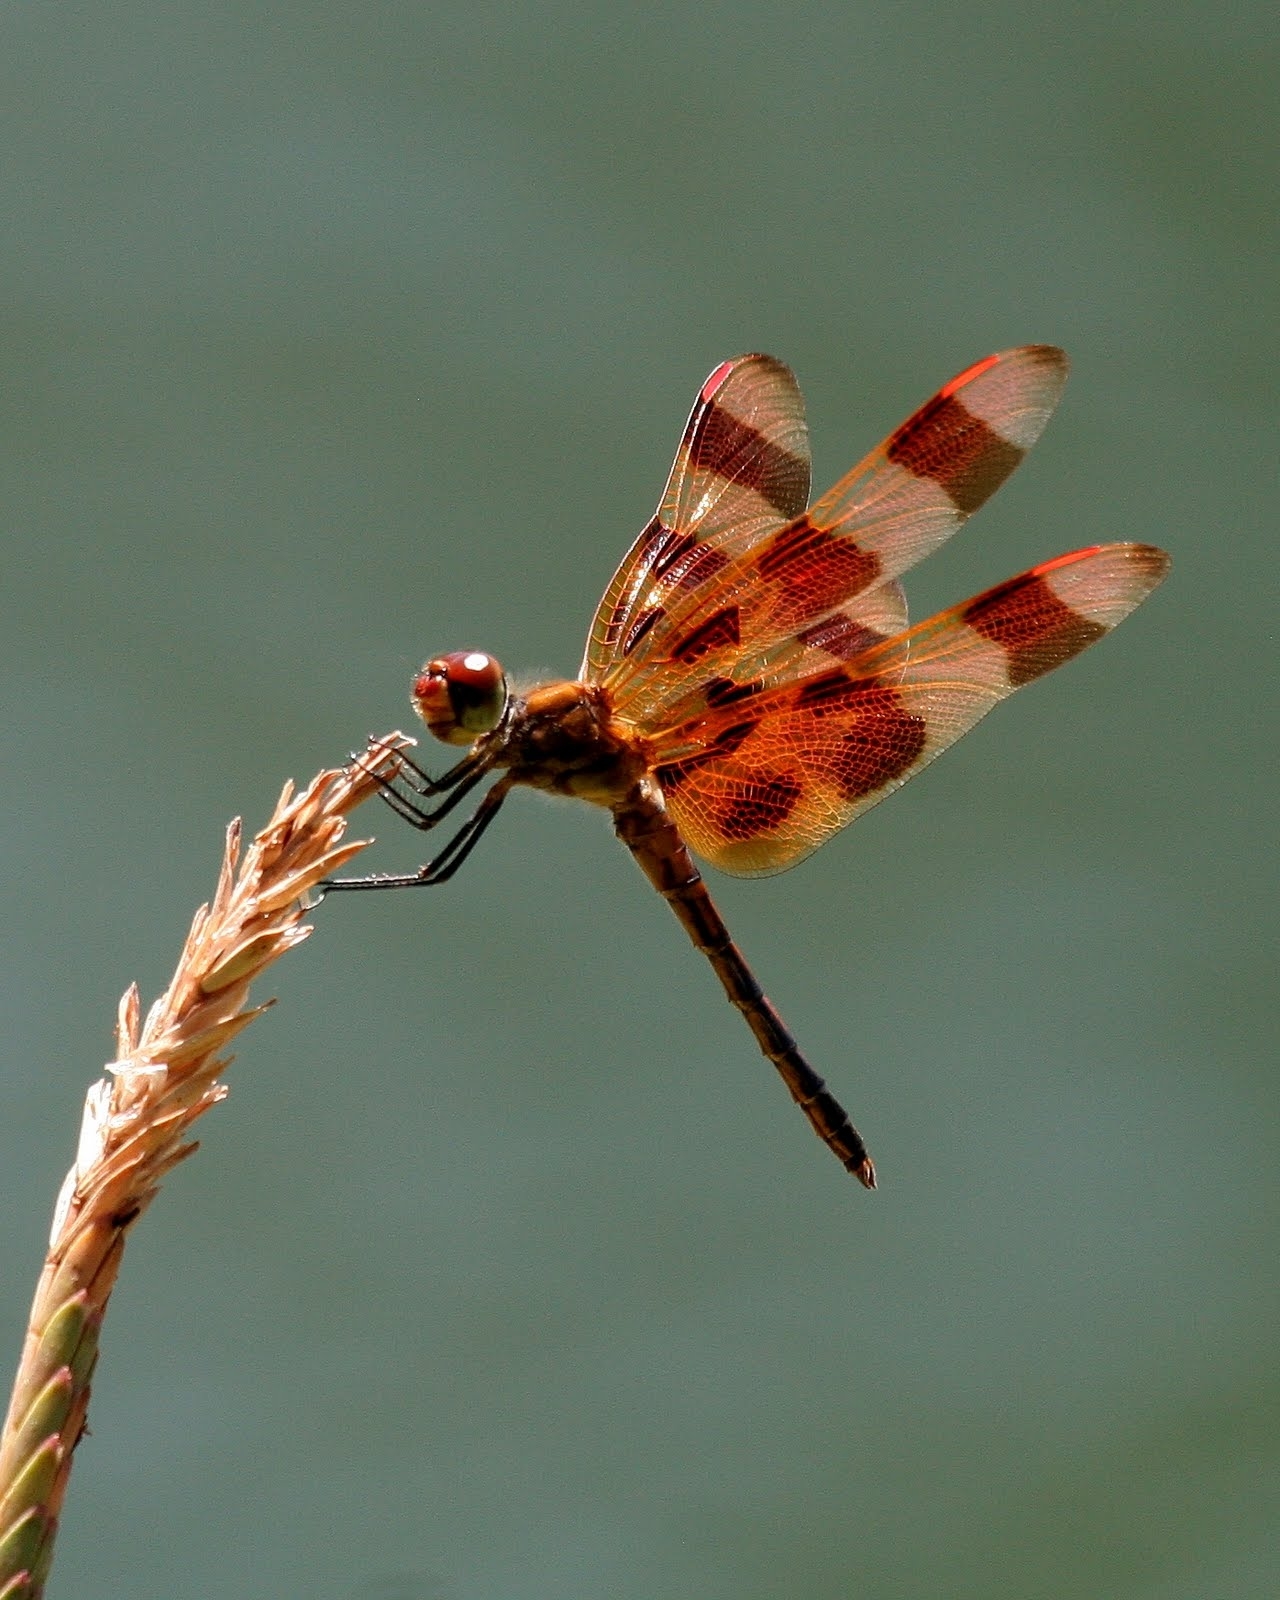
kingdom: Animalia
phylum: Arthropoda
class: Insecta
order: Odonata
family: Libellulidae
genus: Celithemis
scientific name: Celithemis eponina
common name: Halloween pennant
